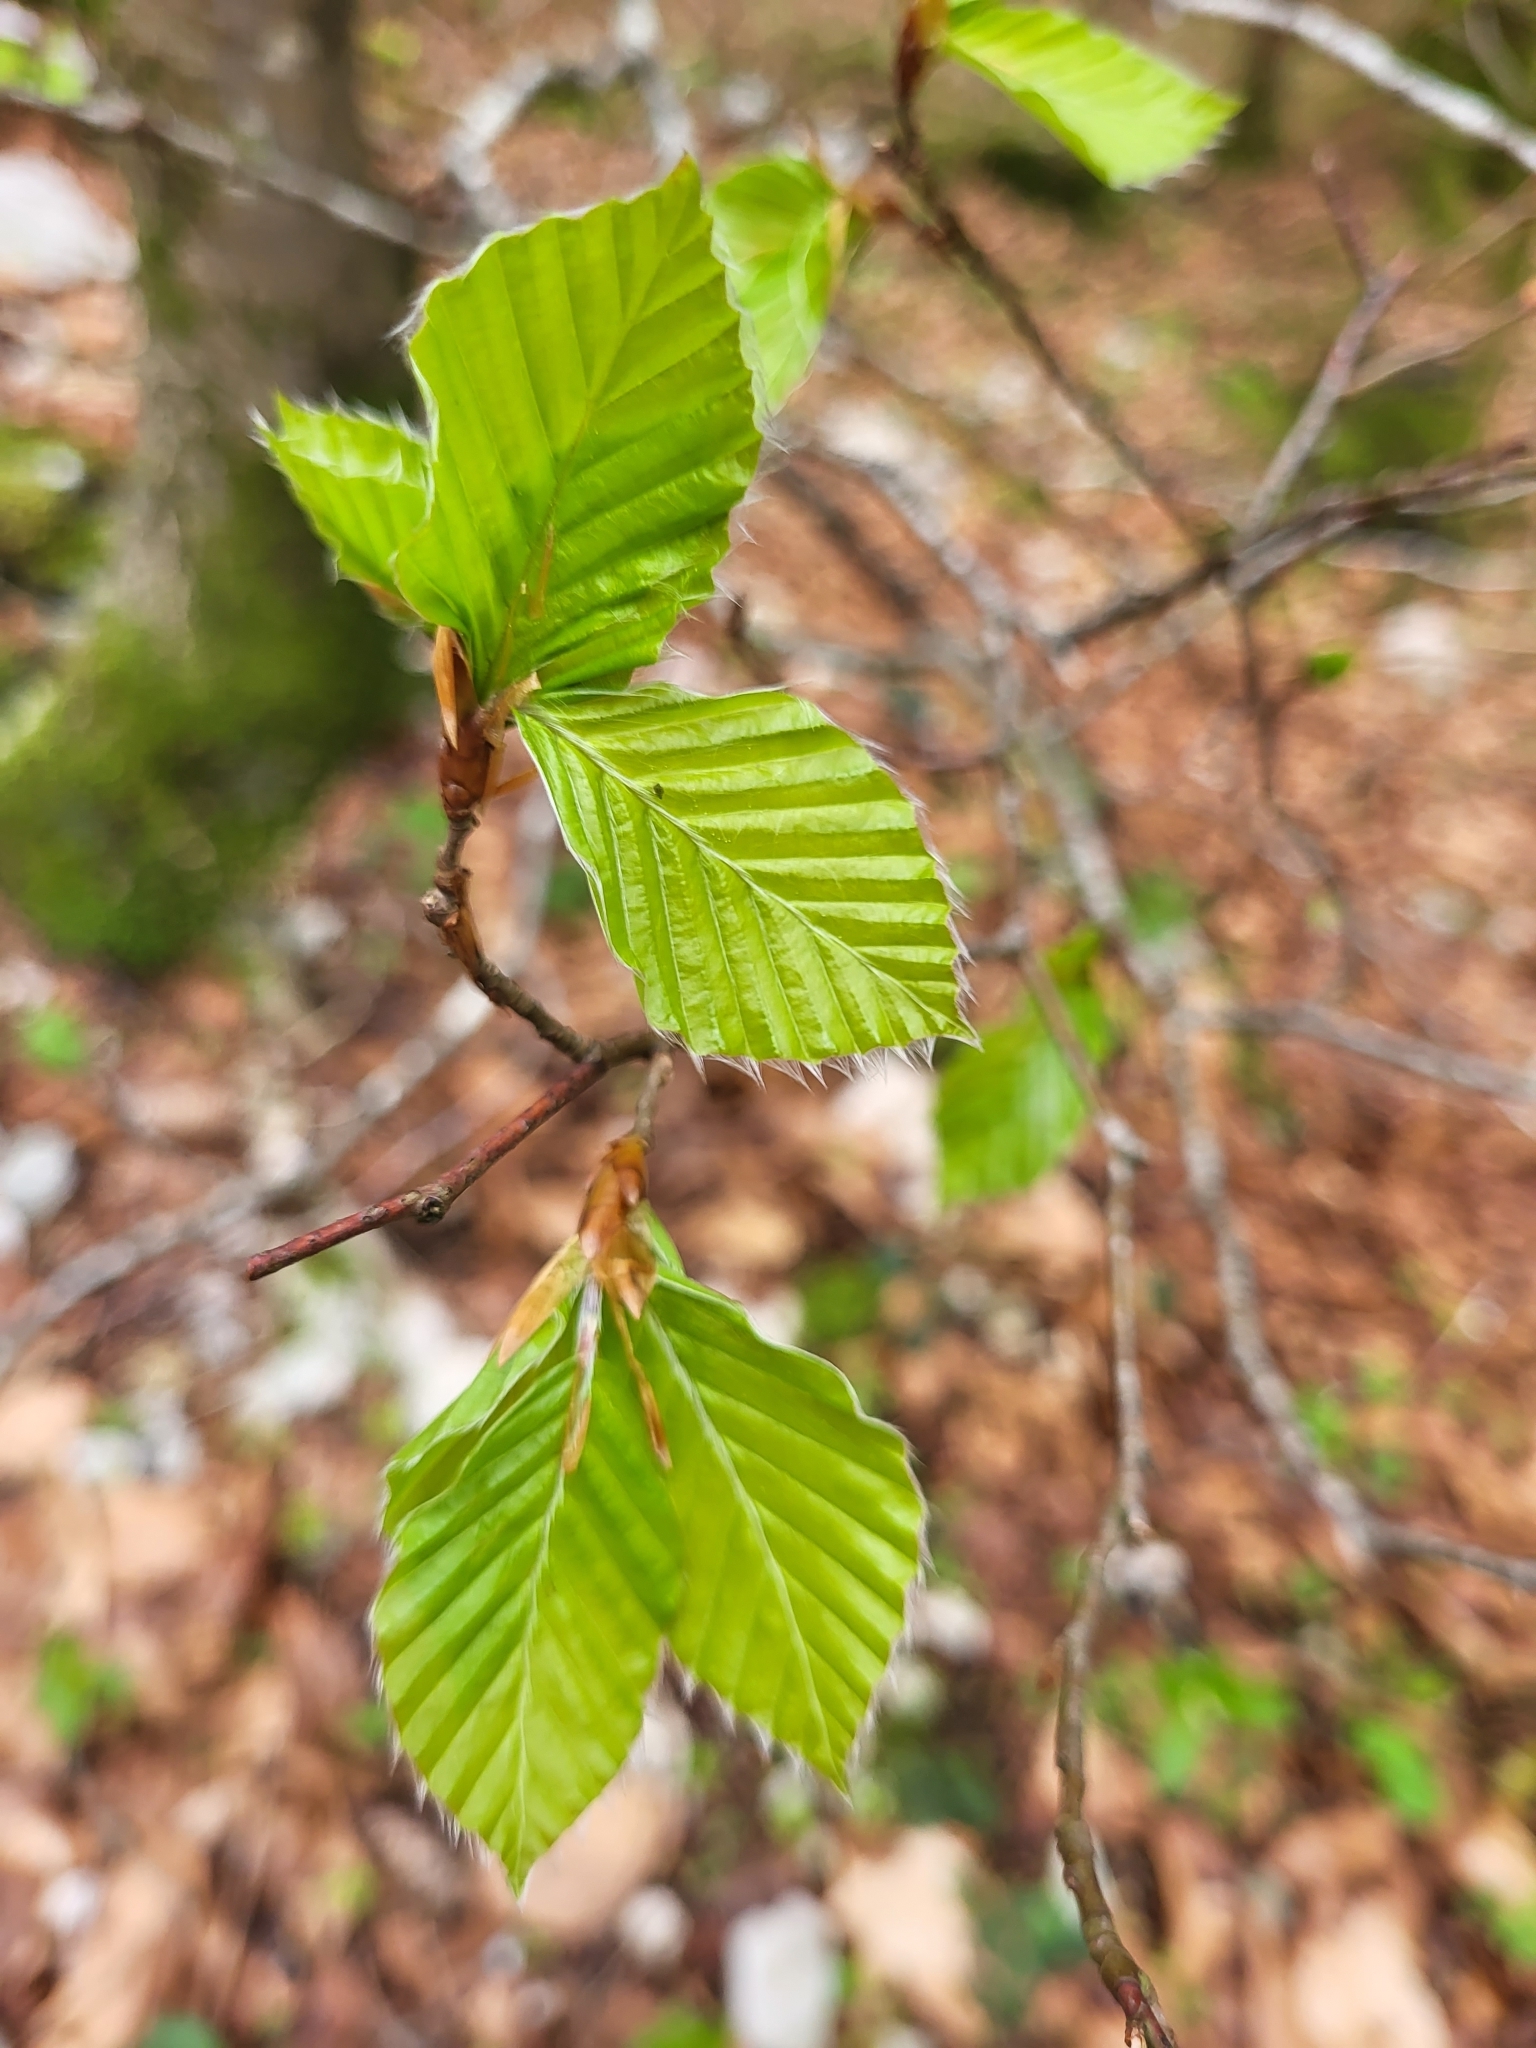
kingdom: Plantae
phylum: Tracheophyta
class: Magnoliopsida
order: Fagales
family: Fagaceae
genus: Fagus
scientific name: Fagus sylvatica
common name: Beech
